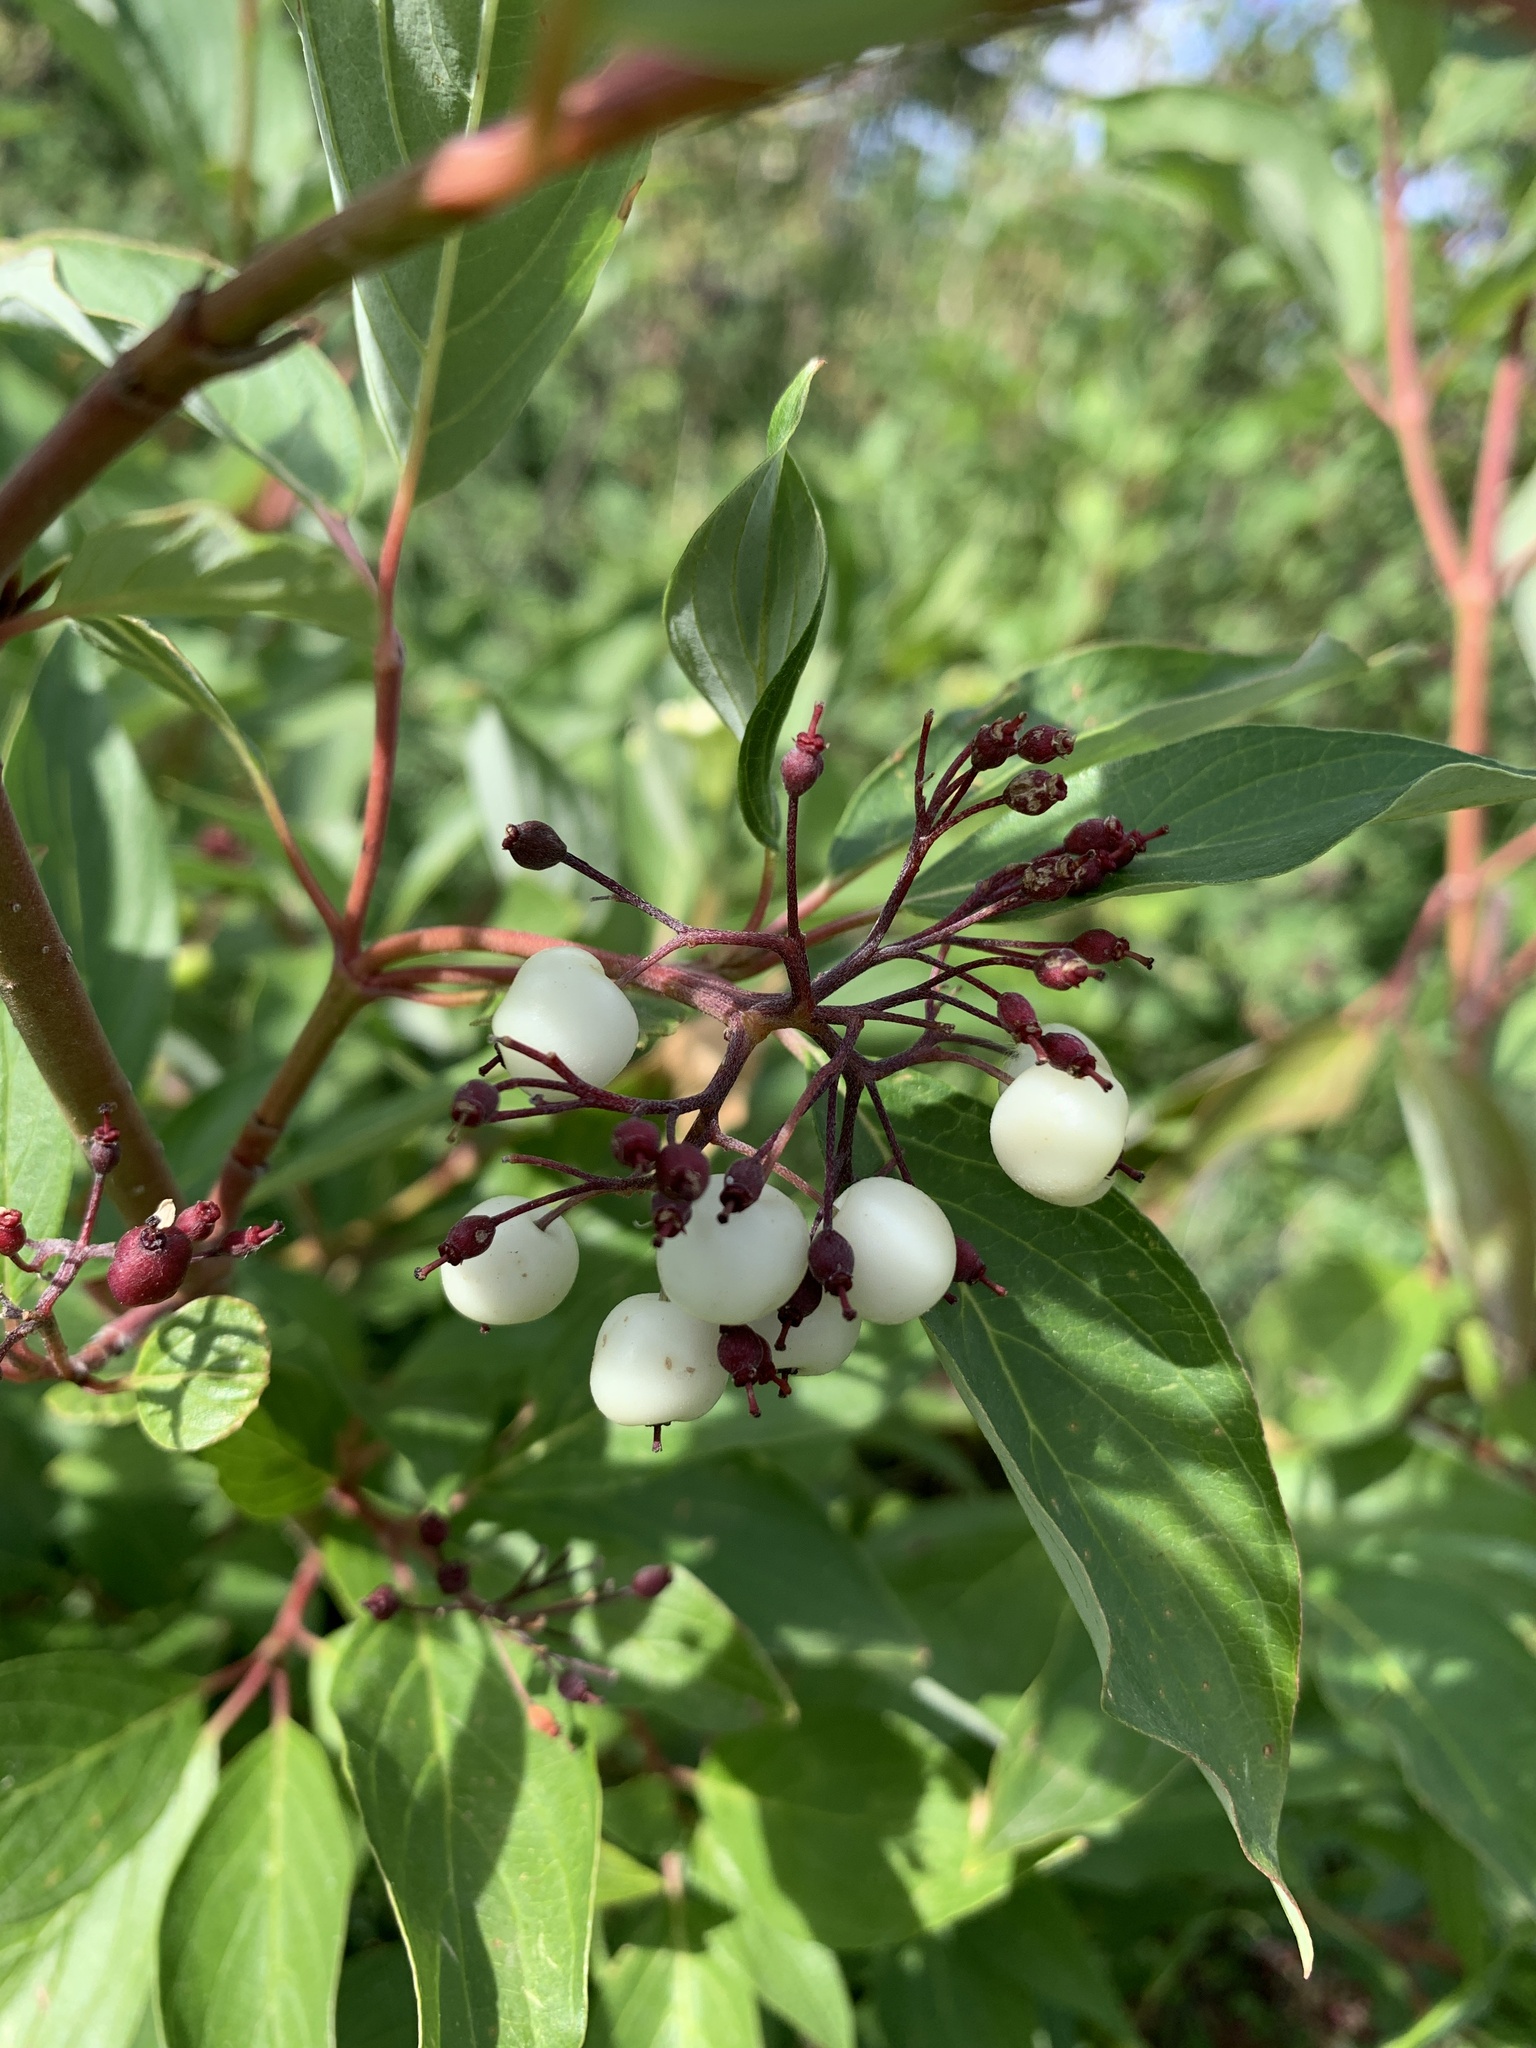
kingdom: Plantae
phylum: Tracheophyta
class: Magnoliopsida
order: Cornales
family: Cornaceae
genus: Cornus
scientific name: Cornus sericea
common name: Red-osier dogwood
